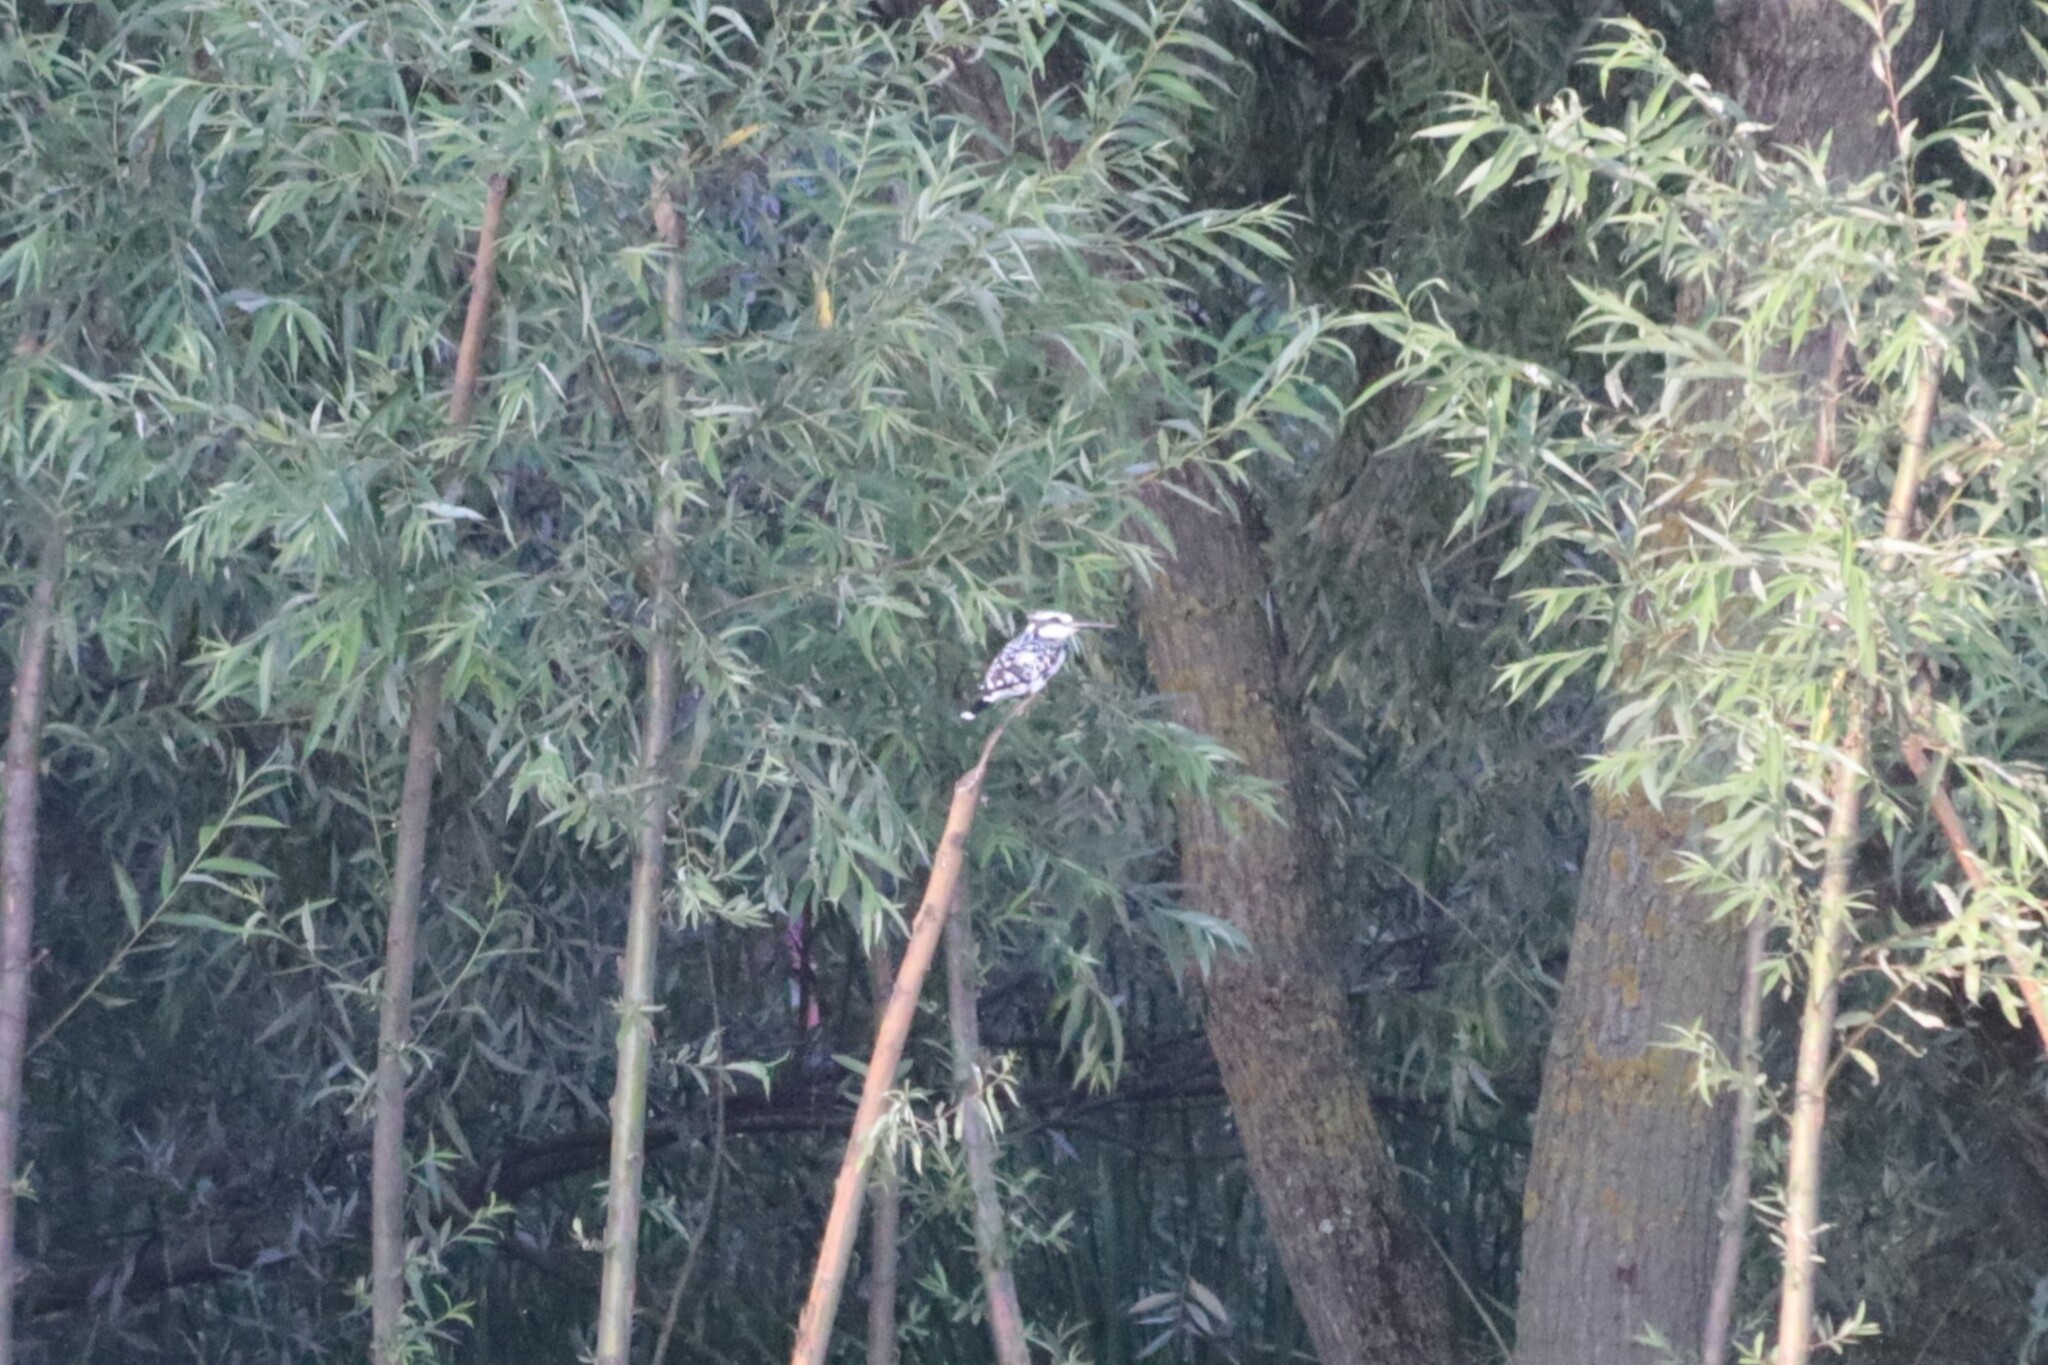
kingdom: Animalia
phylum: Chordata
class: Aves
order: Coraciiformes
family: Alcedinidae
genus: Ceryle
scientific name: Ceryle rudis
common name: Pied kingfisher
